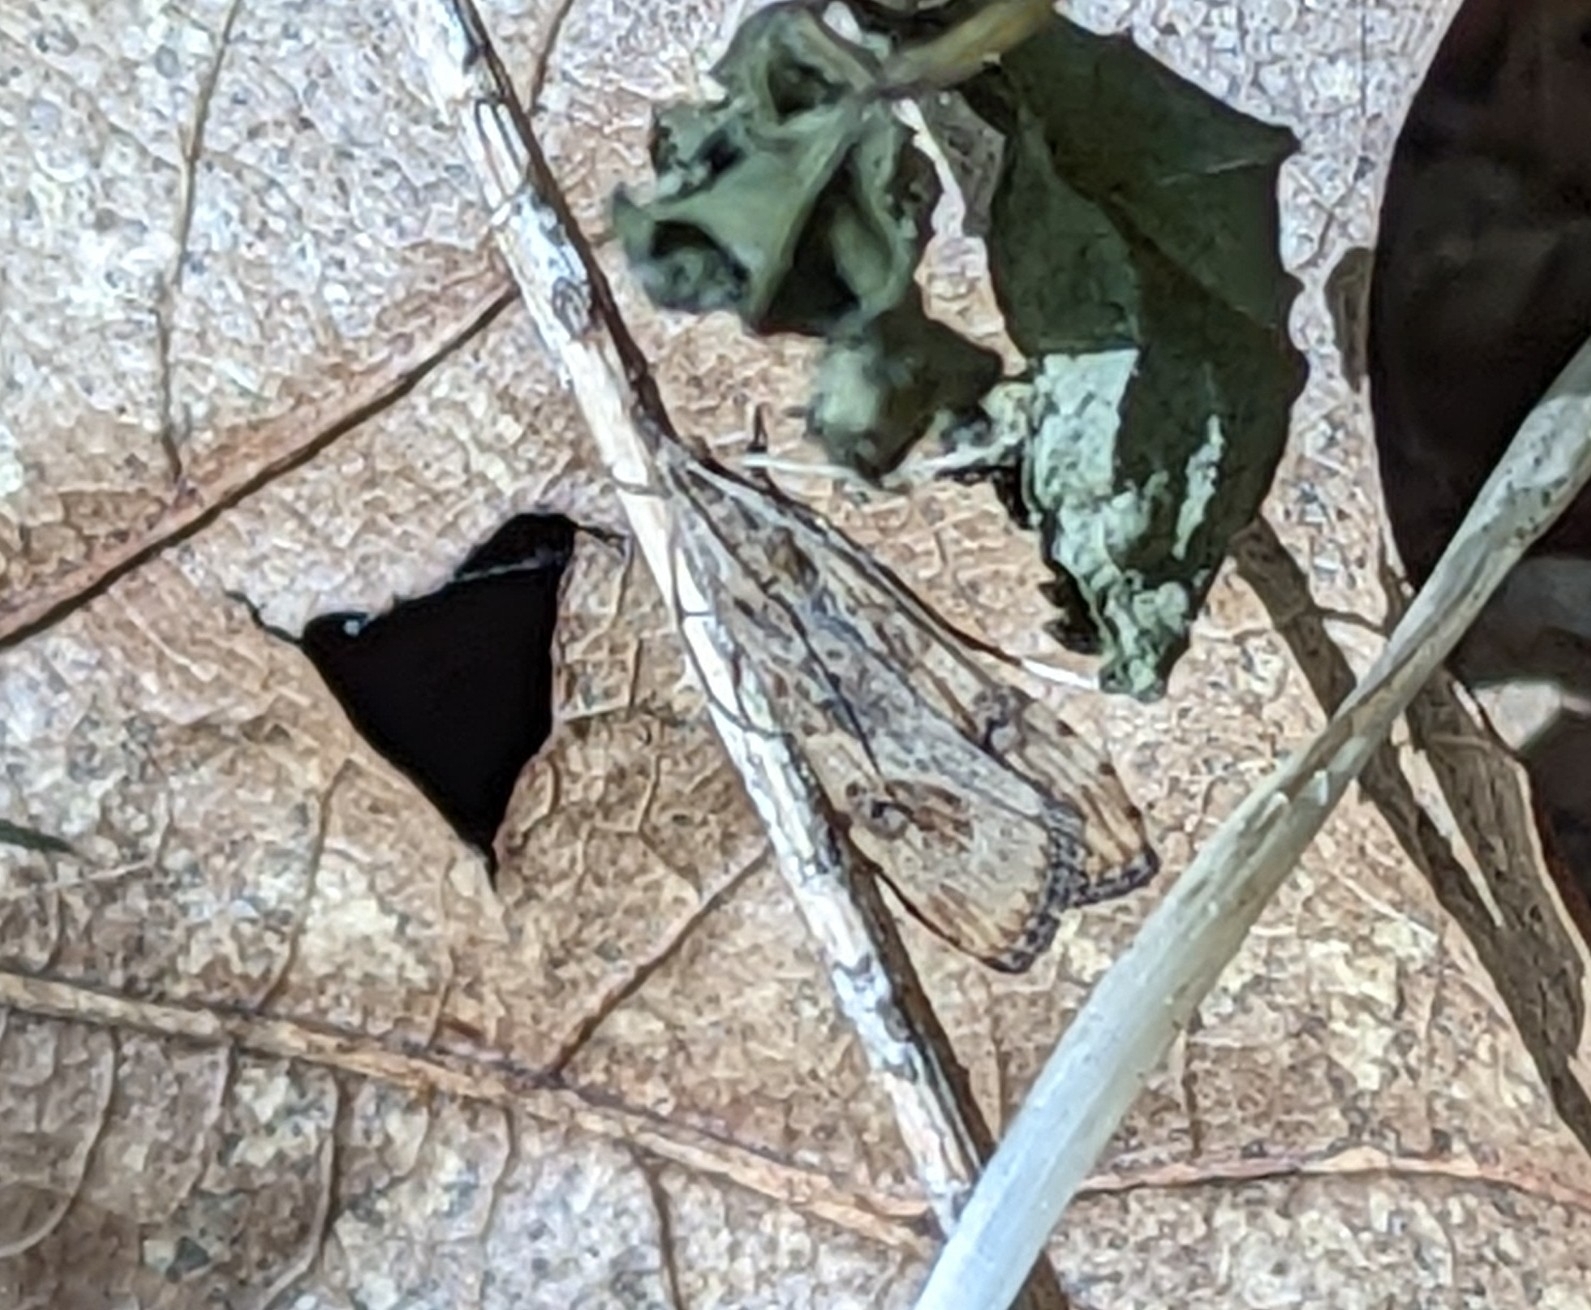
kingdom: Animalia
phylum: Arthropoda
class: Insecta
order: Lepidoptera
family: Crambidae
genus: Nomophila
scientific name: Nomophila noctuella
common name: Rush veneer
